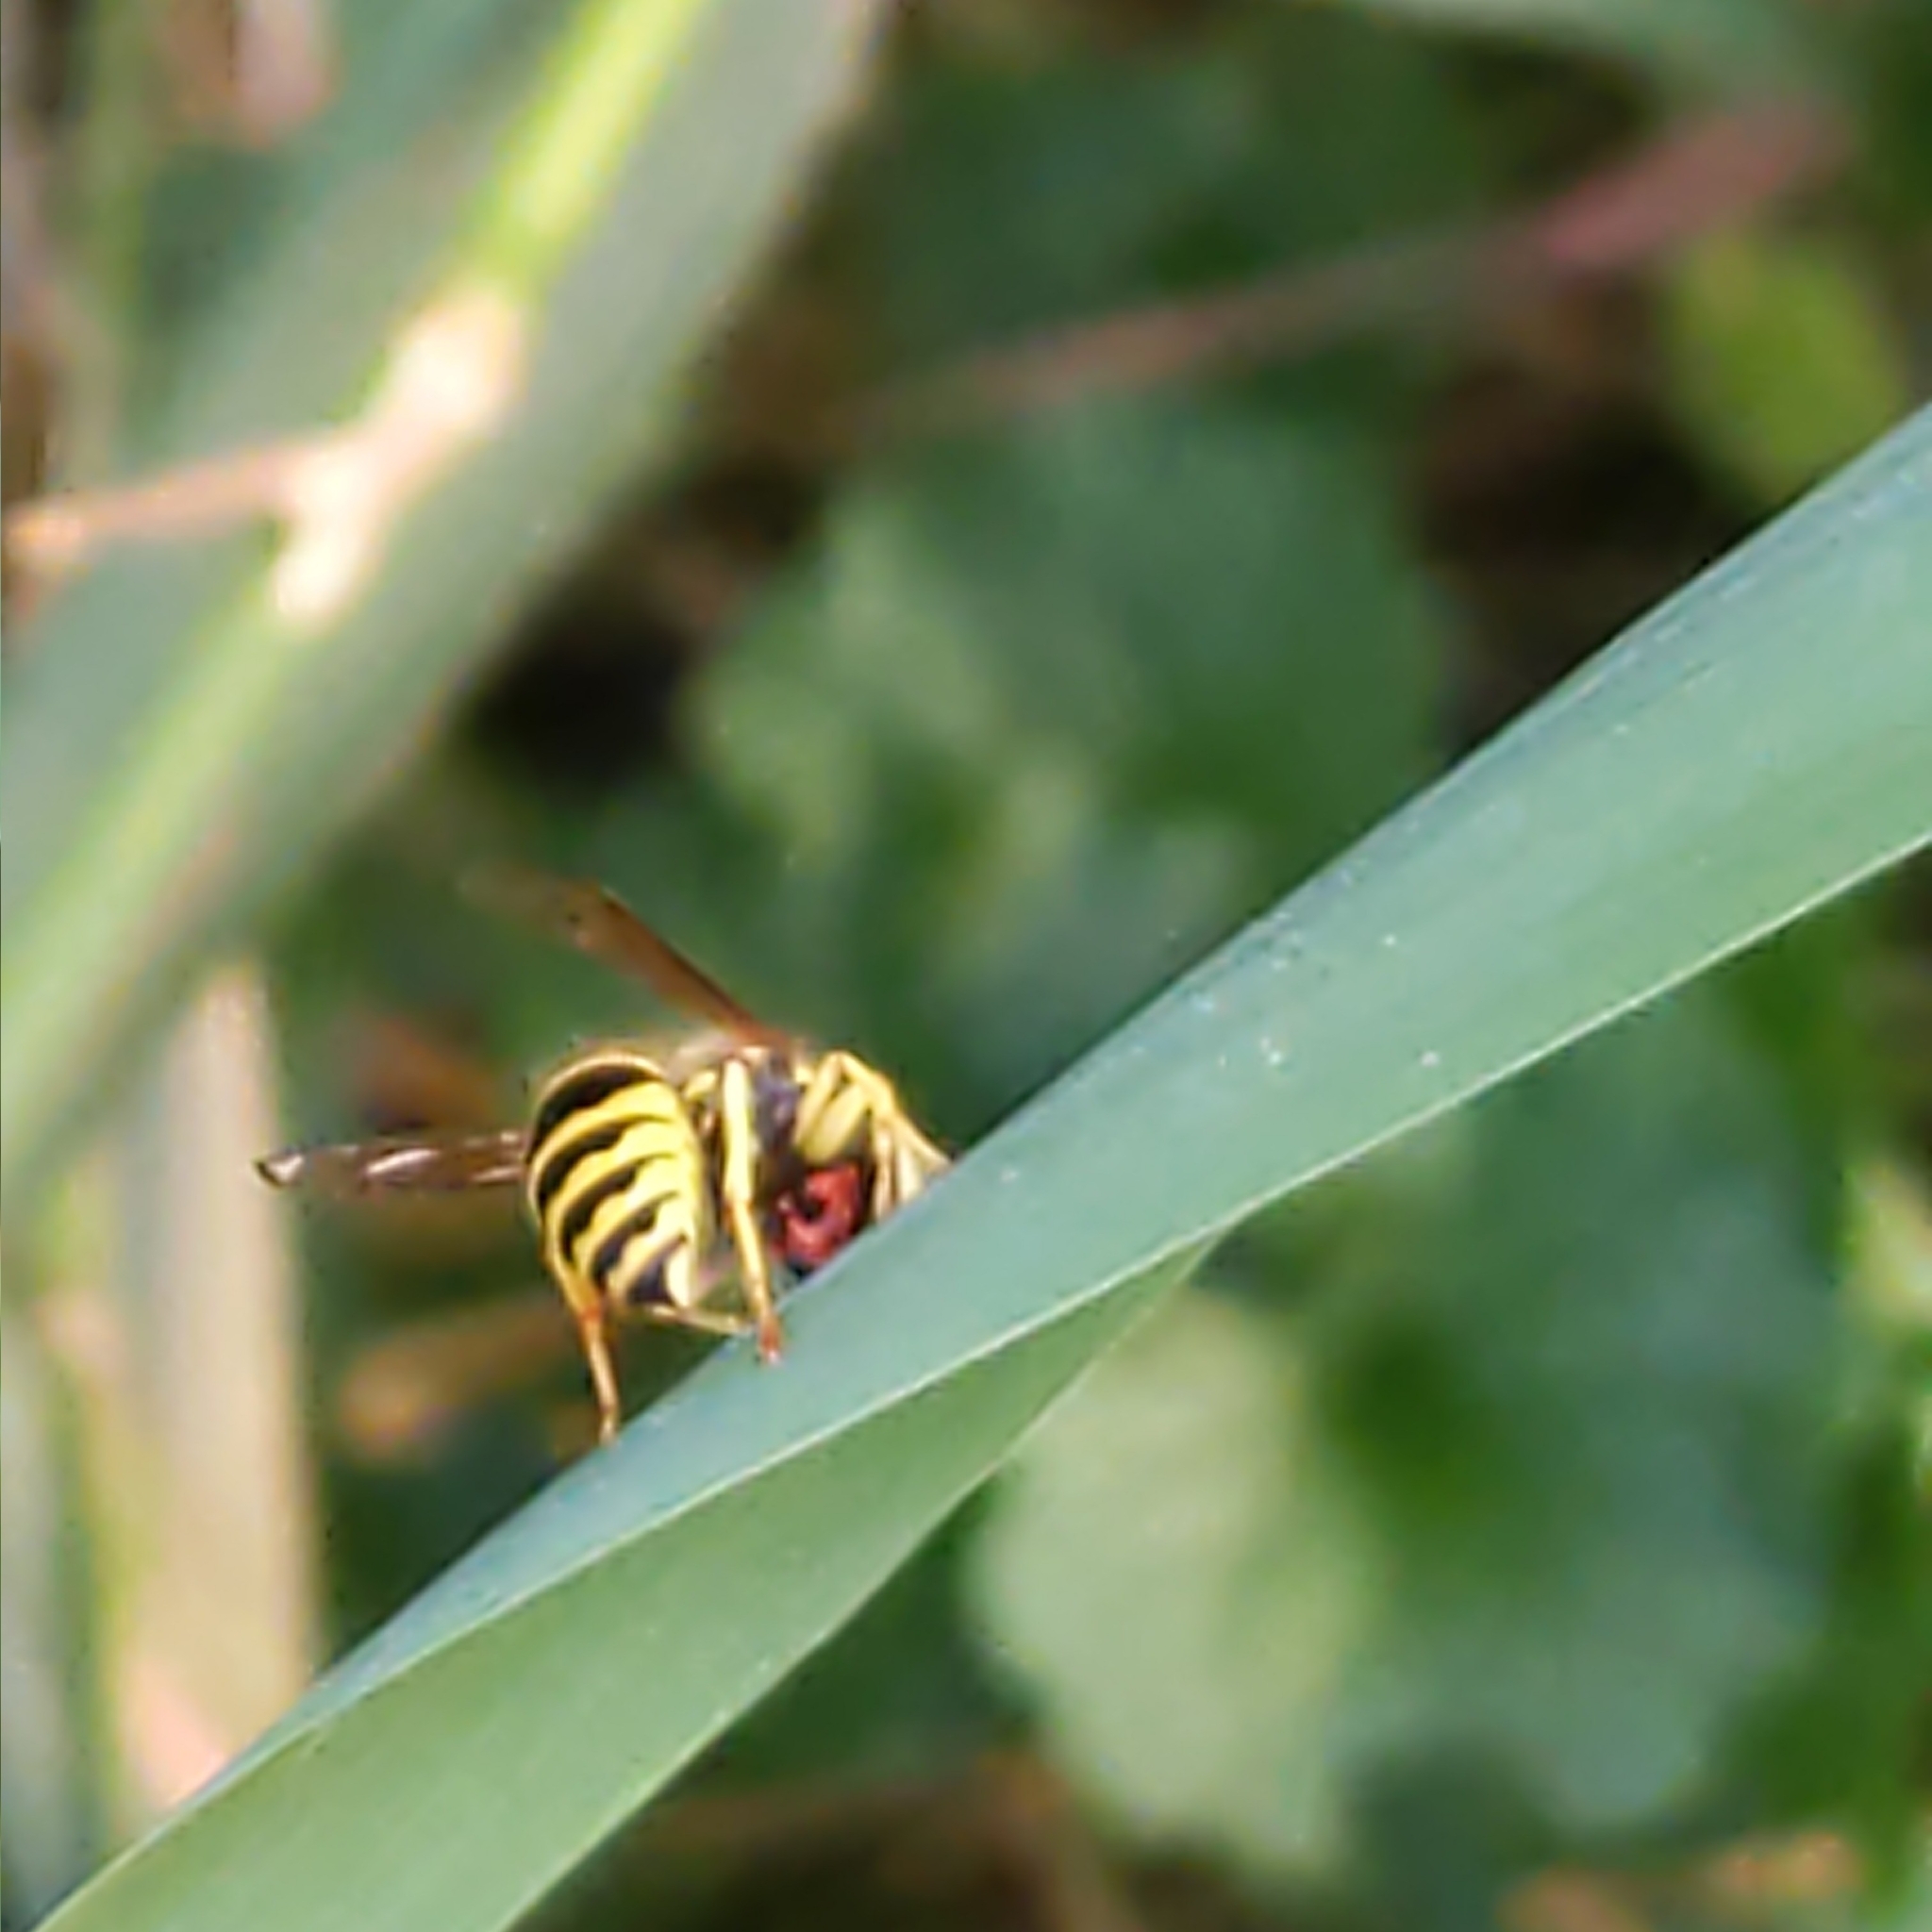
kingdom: Animalia
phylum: Arthropoda
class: Insecta
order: Hymenoptera
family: Vespidae
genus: Vespula
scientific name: Vespula maculifrons
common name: Eastern yellowjacket
